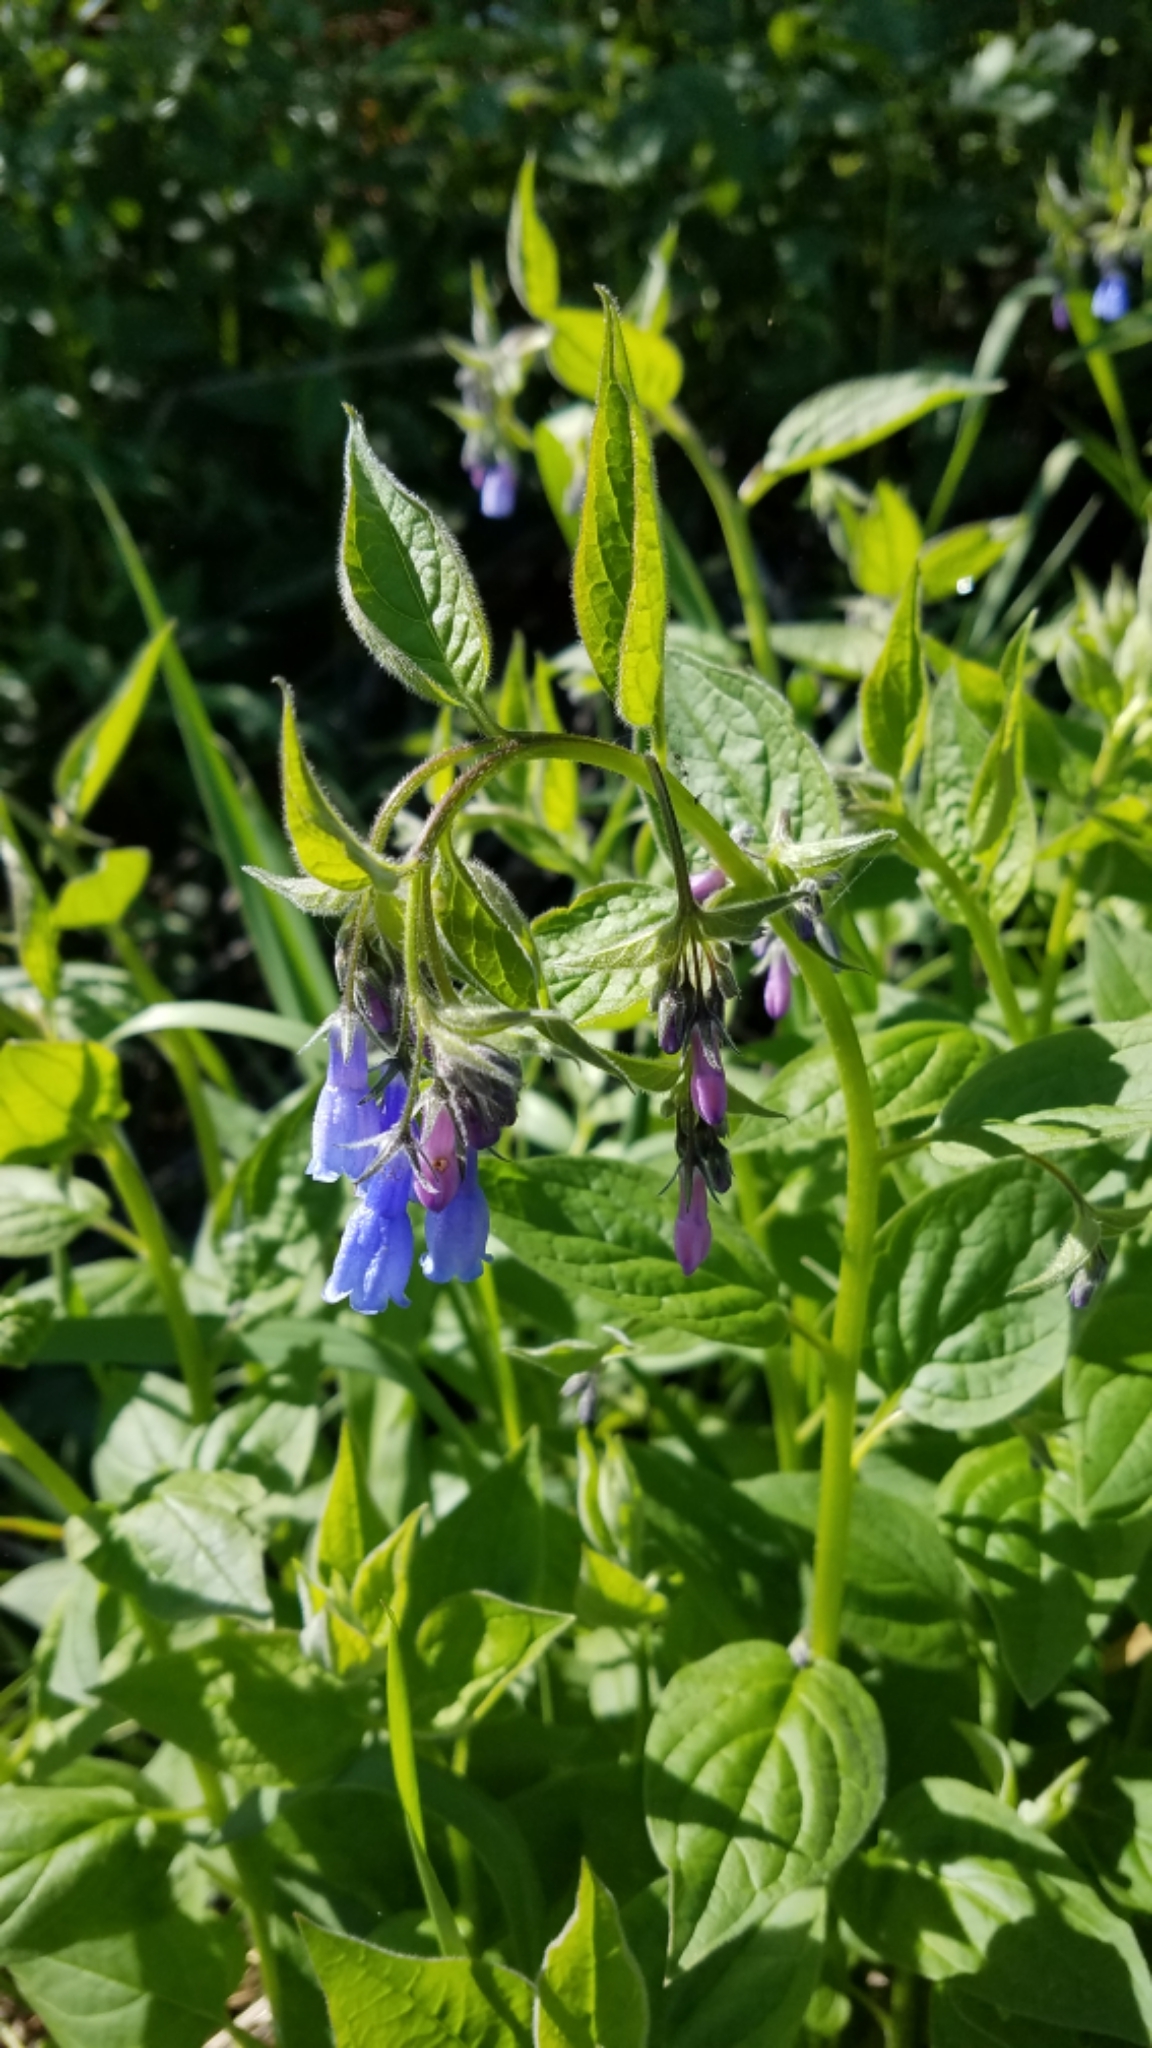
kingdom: Plantae
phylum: Tracheophyta
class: Magnoliopsida
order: Boraginales
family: Boraginaceae
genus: Mertensia
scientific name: Mertensia paniculata
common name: Panicled bluebells
